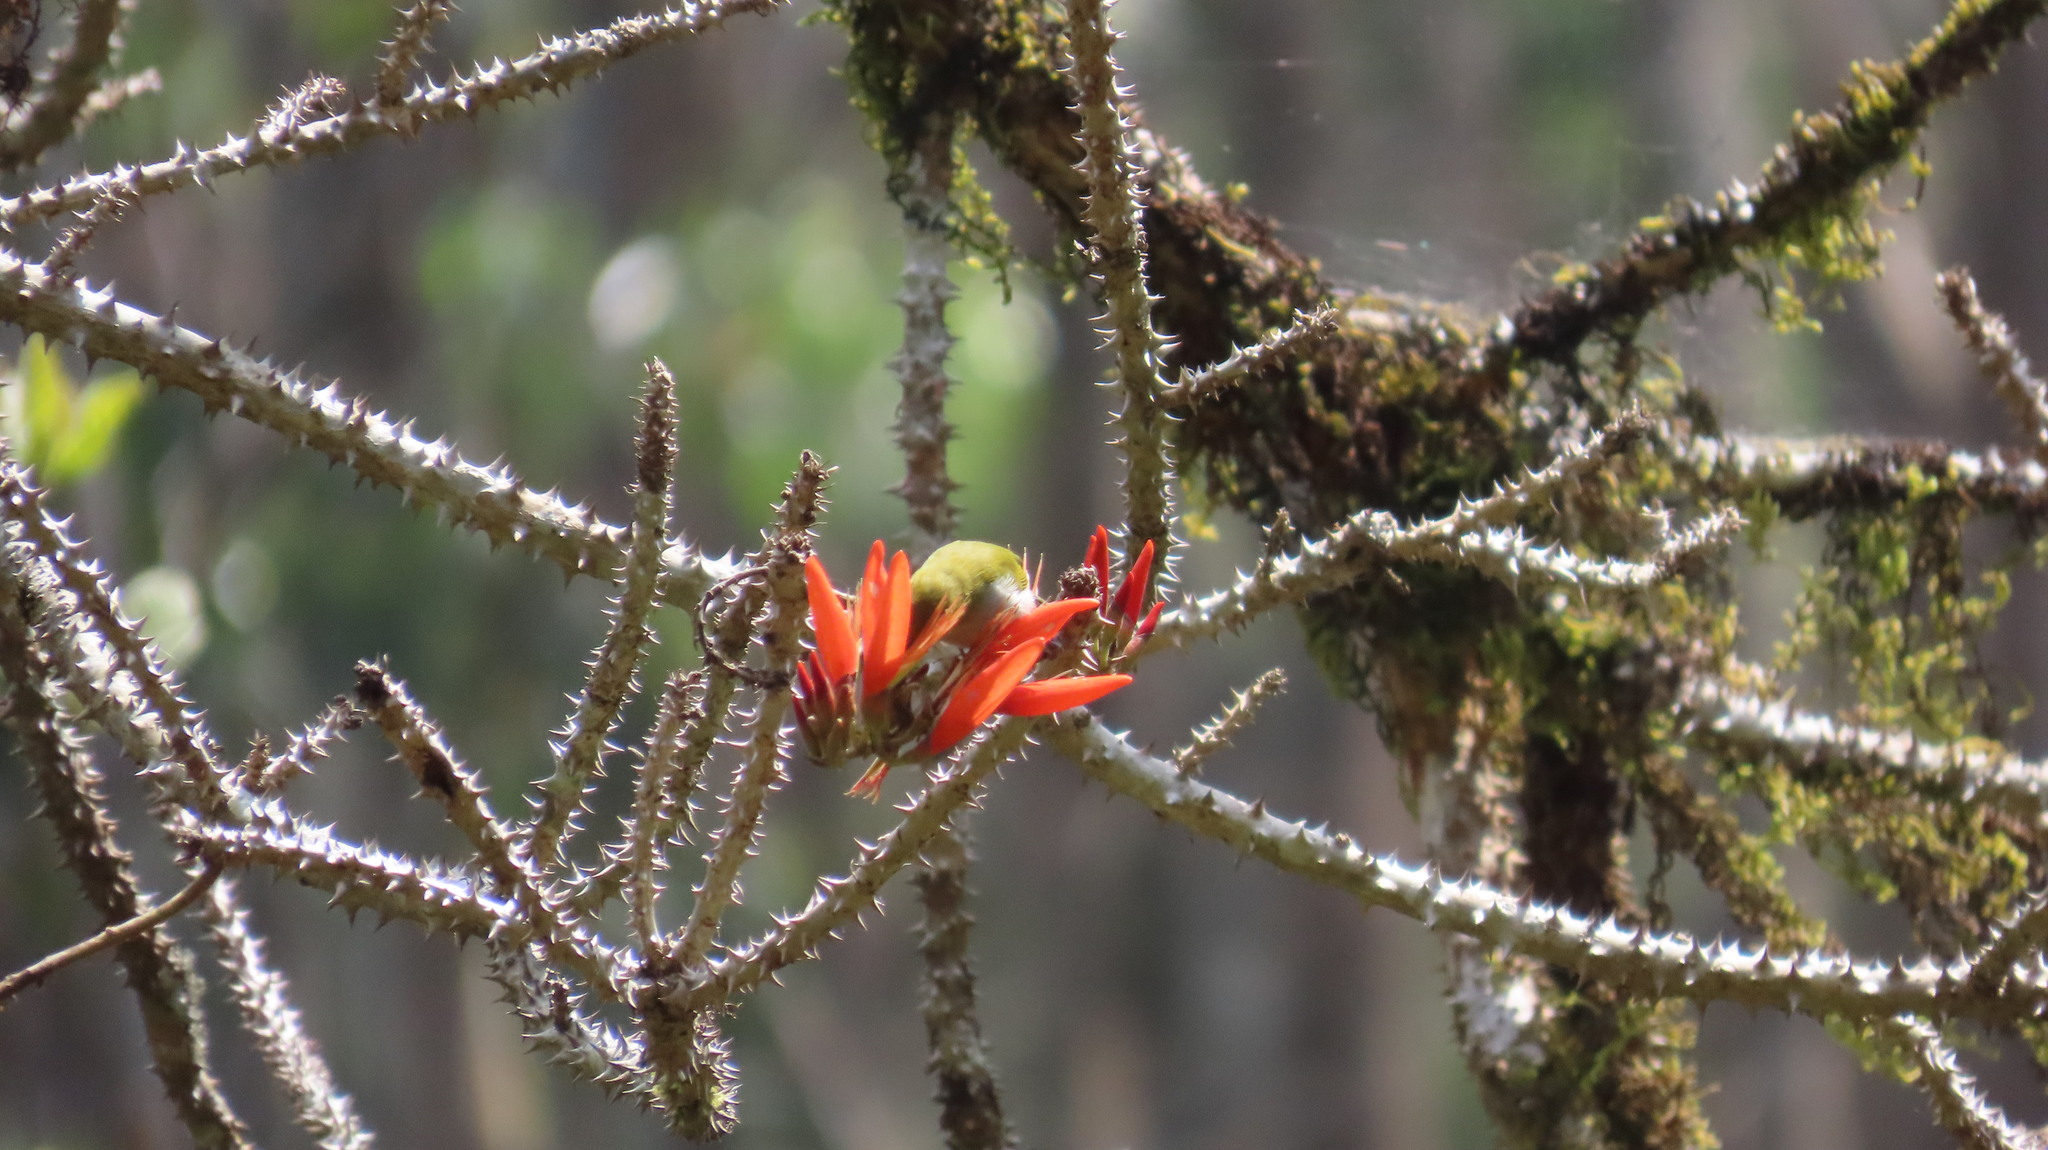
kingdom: Animalia
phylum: Chordata
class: Aves
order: Passeriformes
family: Zosteropidae
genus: Zosterops
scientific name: Zosterops palpebrosus
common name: Oriental white-eye
